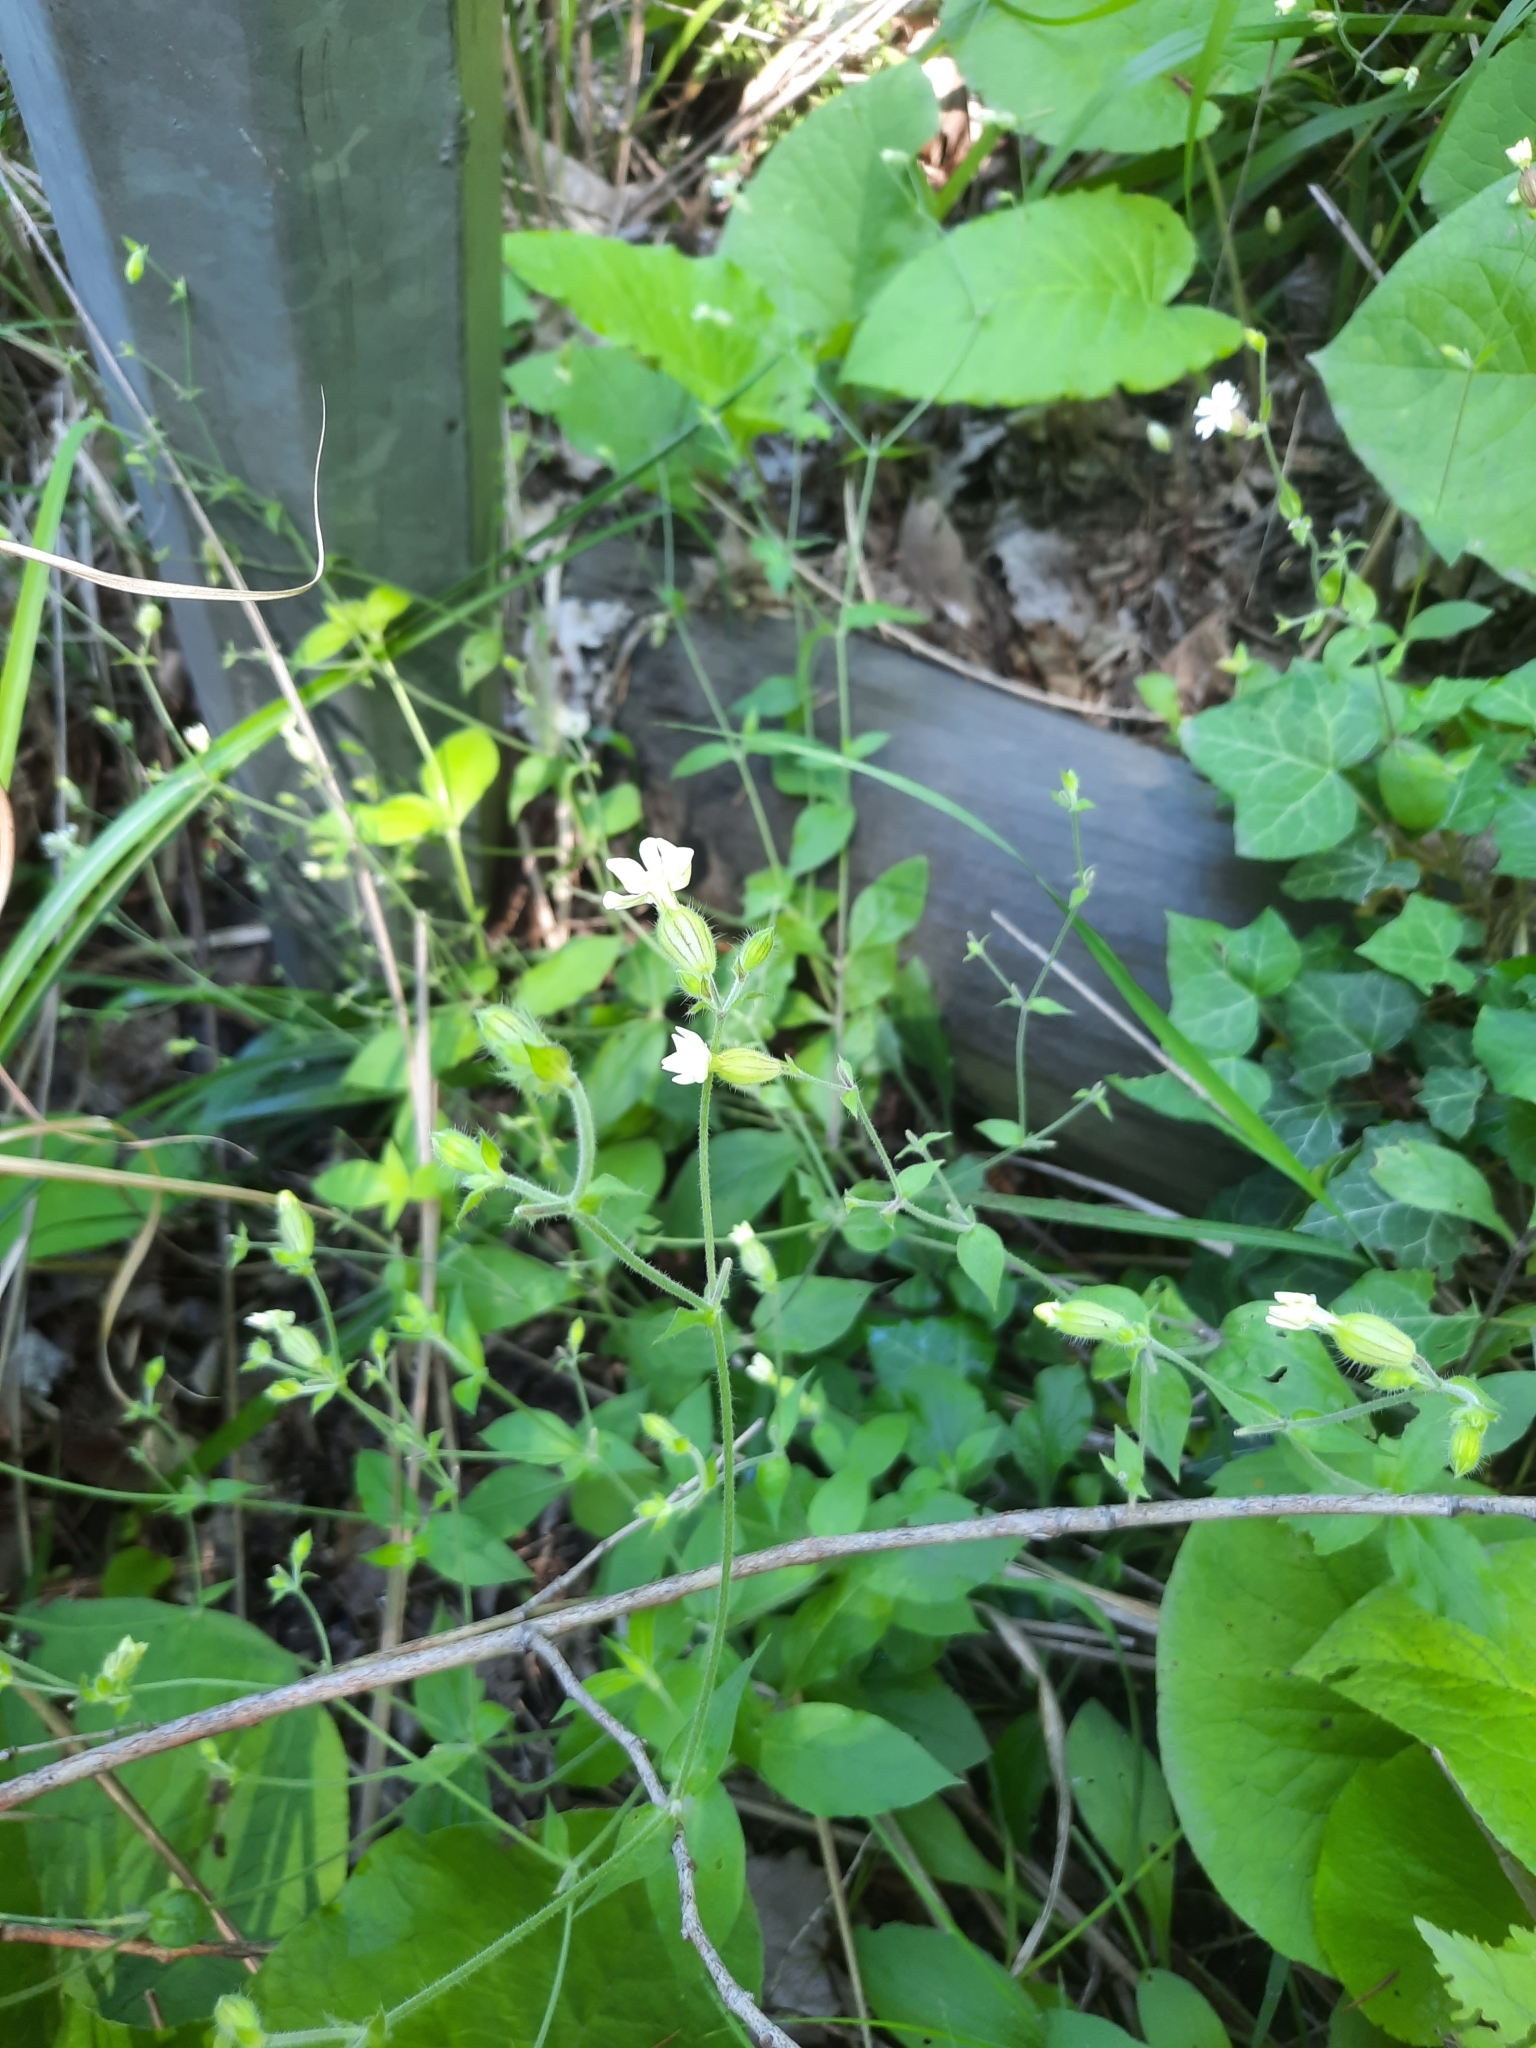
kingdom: Plantae
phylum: Tracheophyta
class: Magnoliopsida
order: Caryophyllales
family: Caryophyllaceae
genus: Silene
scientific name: Silene latifolia
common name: White campion
